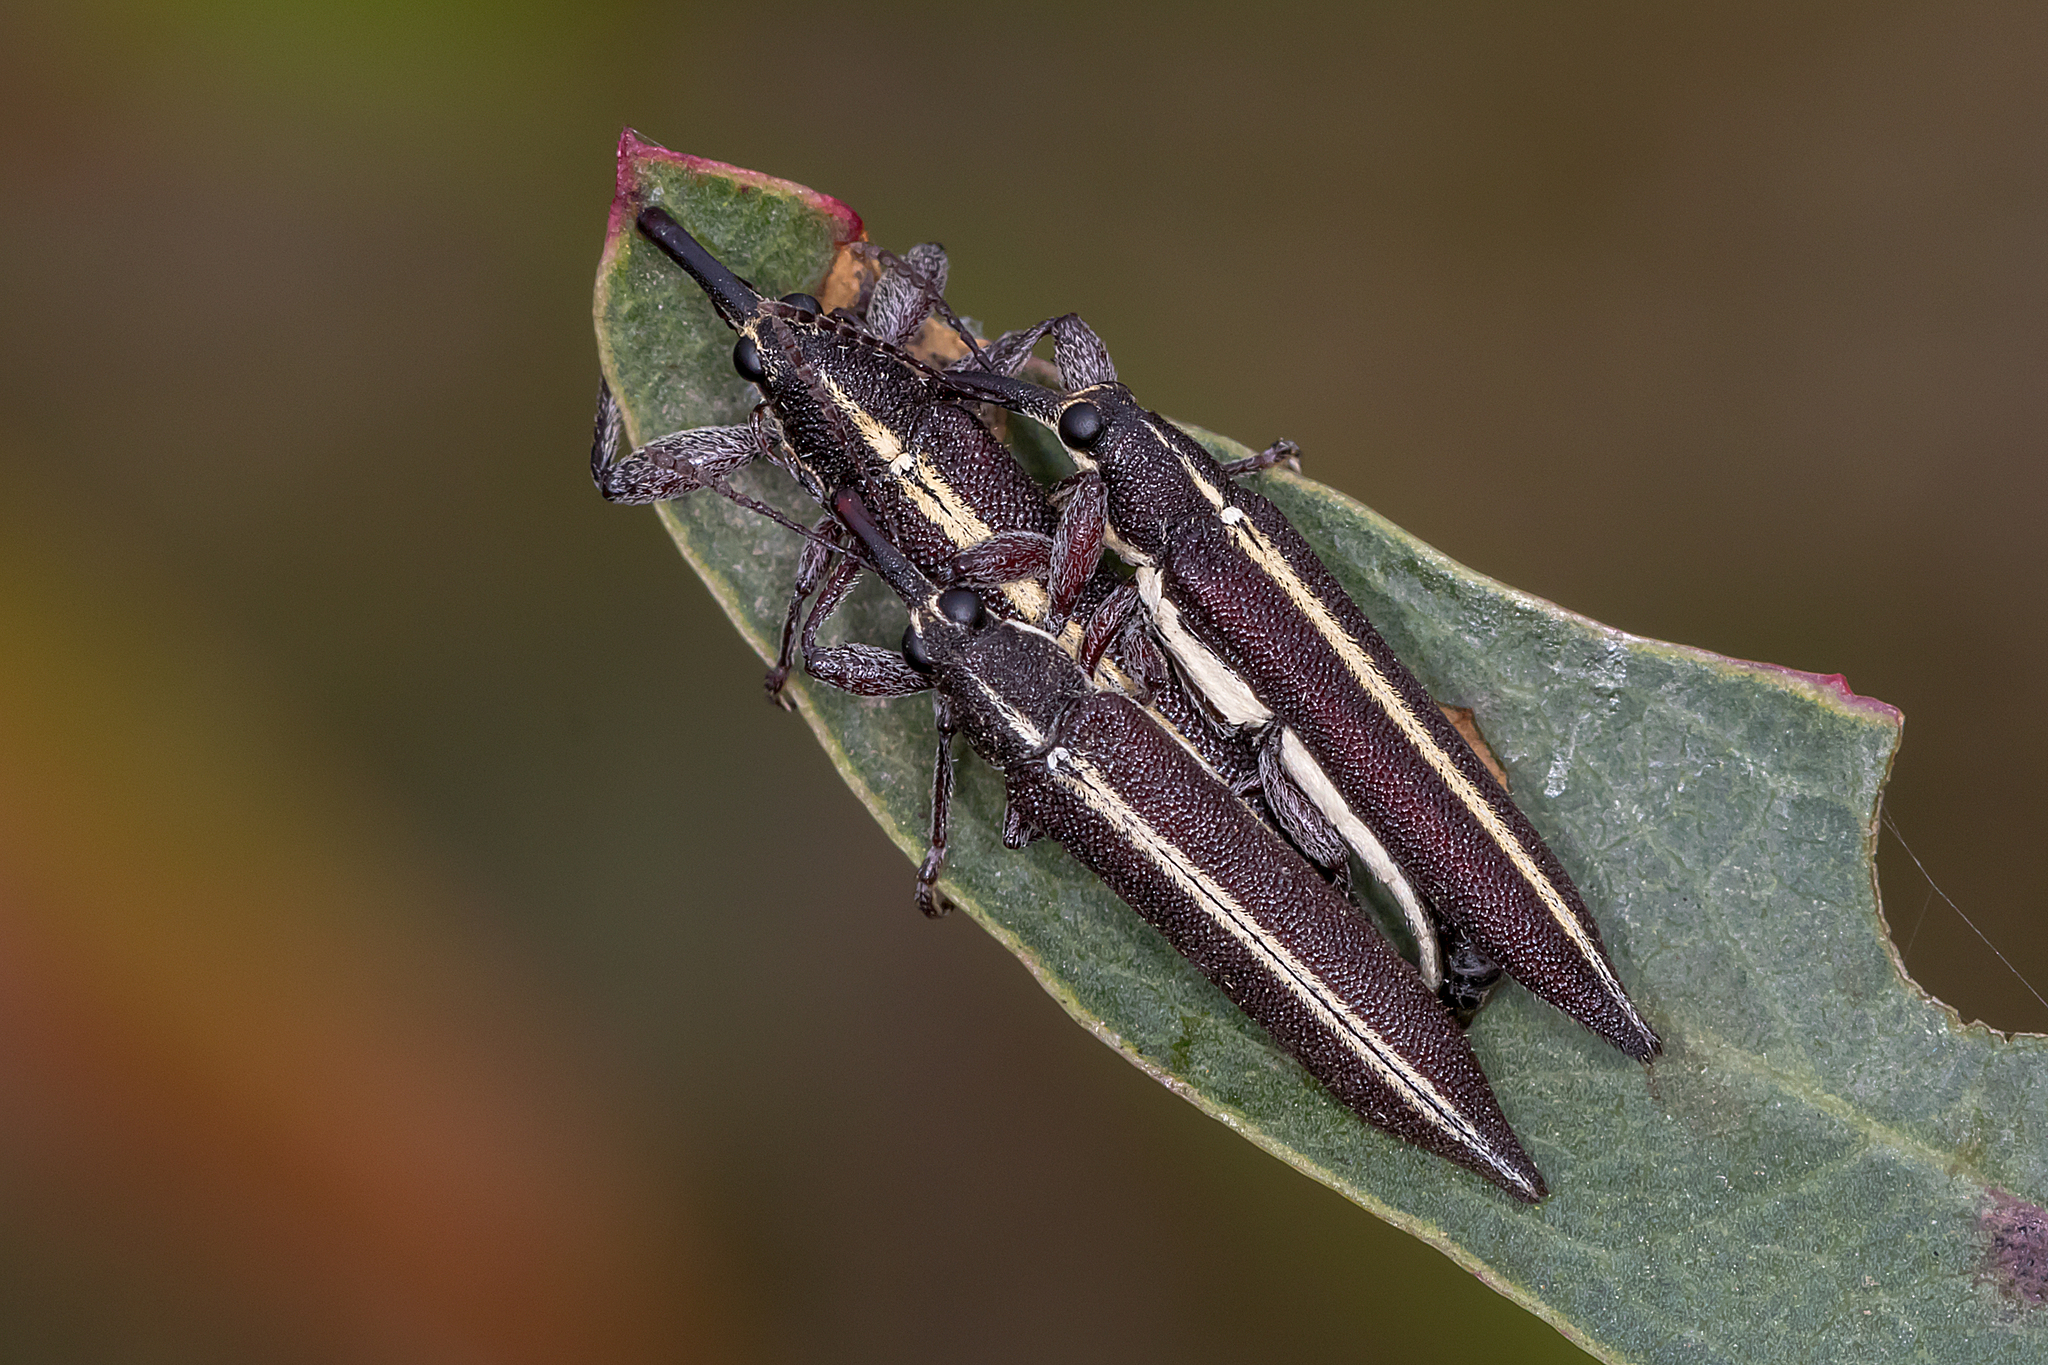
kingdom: Animalia
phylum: Arthropoda
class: Insecta
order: Coleoptera
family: Belidae
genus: Rhinotia
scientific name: Rhinotia suturalis
